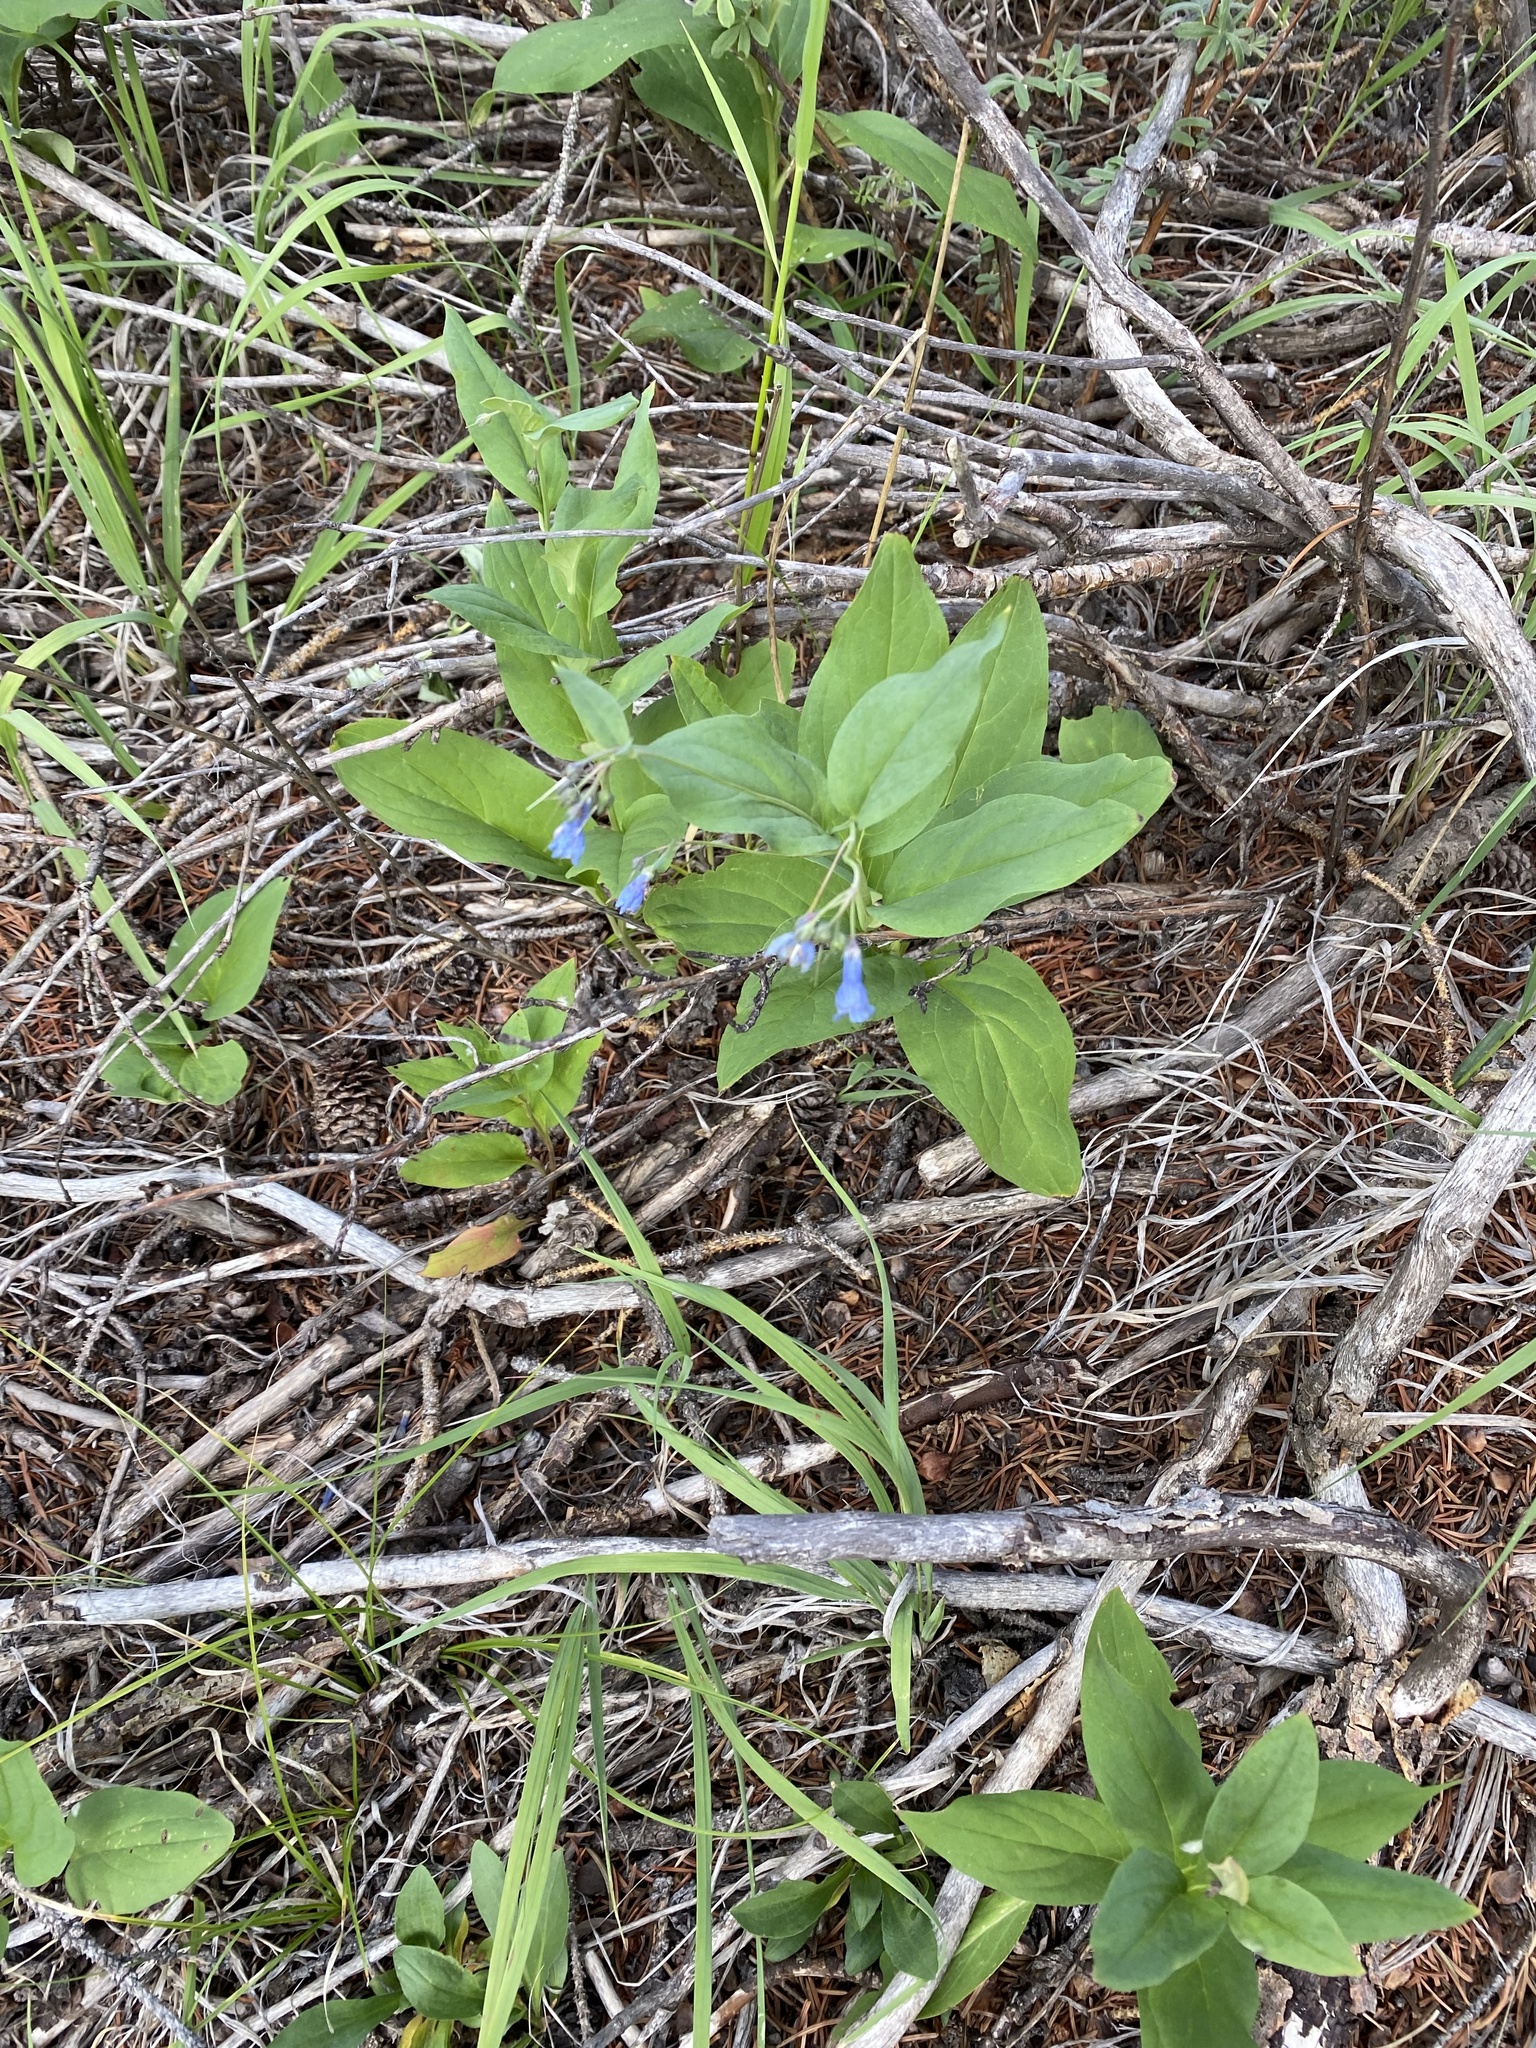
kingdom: Plantae
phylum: Tracheophyta
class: Magnoliopsida
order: Boraginales
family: Boraginaceae
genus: Mertensia
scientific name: Mertensia ciliata
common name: Tall chiming-bells
